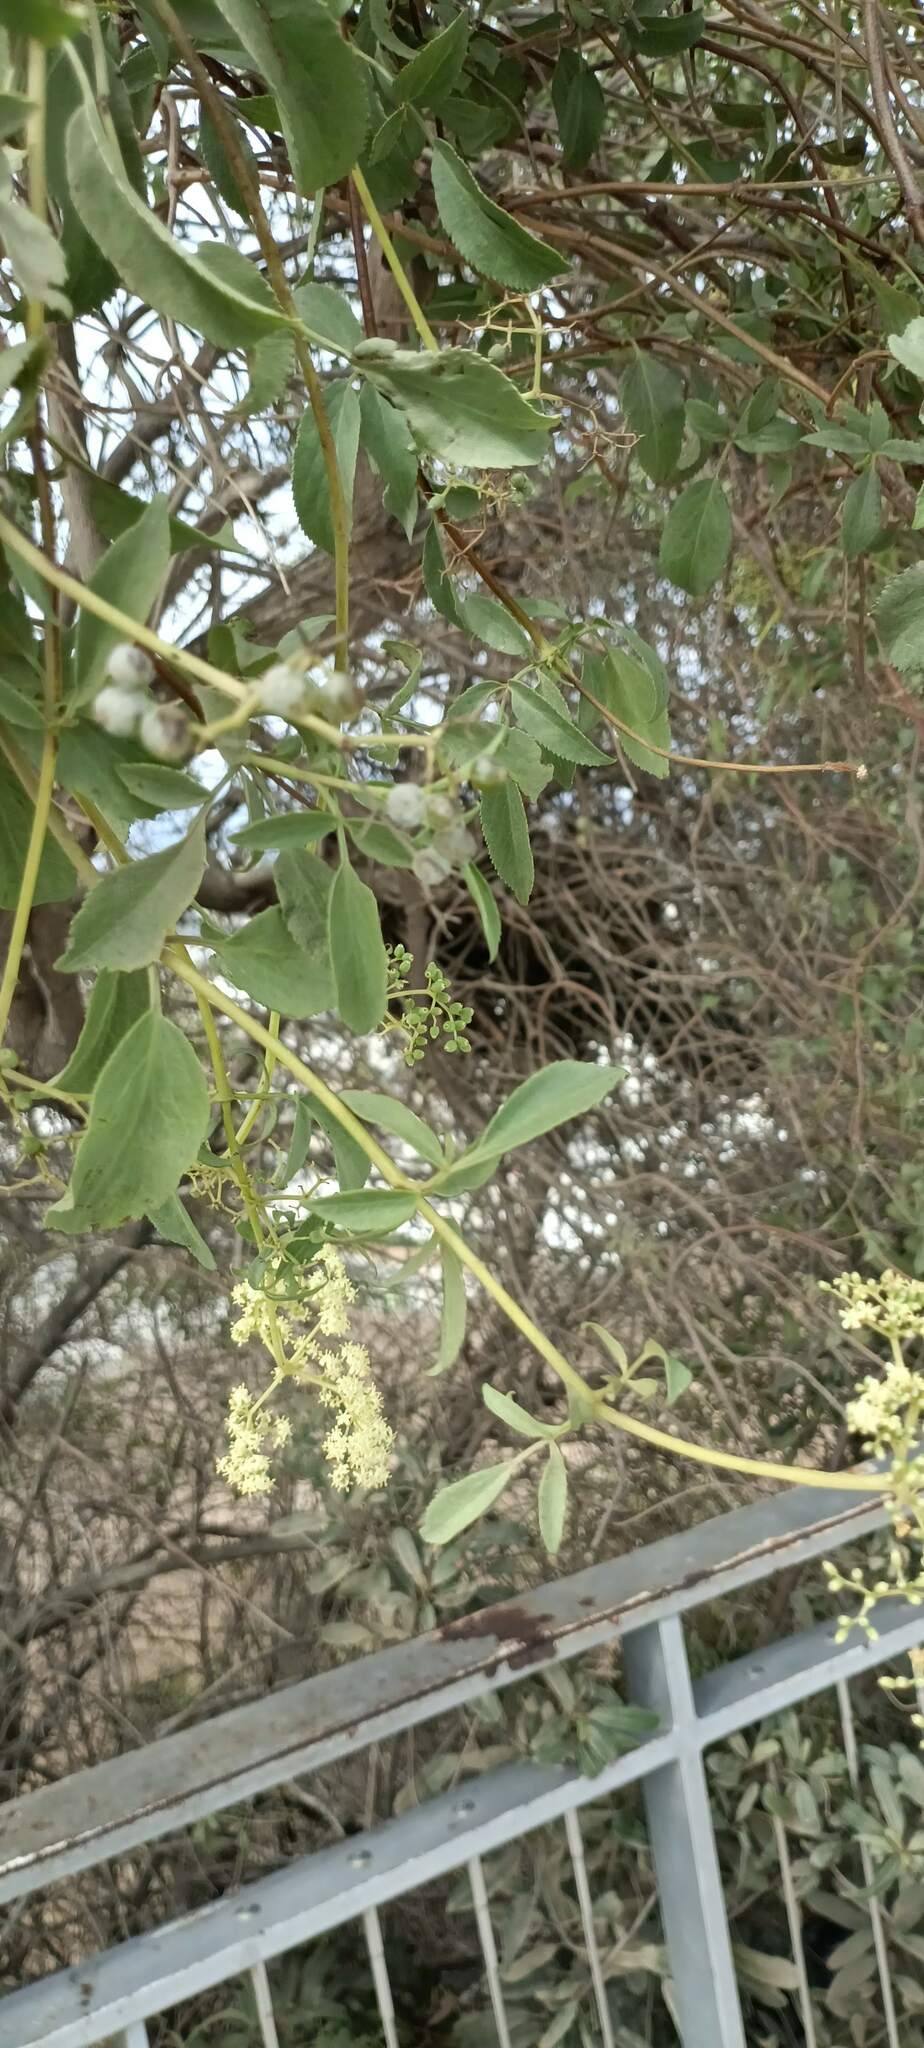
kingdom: Plantae
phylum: Tracheophyta
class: Magnoliopsida
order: Dipsacales
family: Viburnaceae
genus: Sambucus
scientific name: Sambucus cerulea
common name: Blue elder
